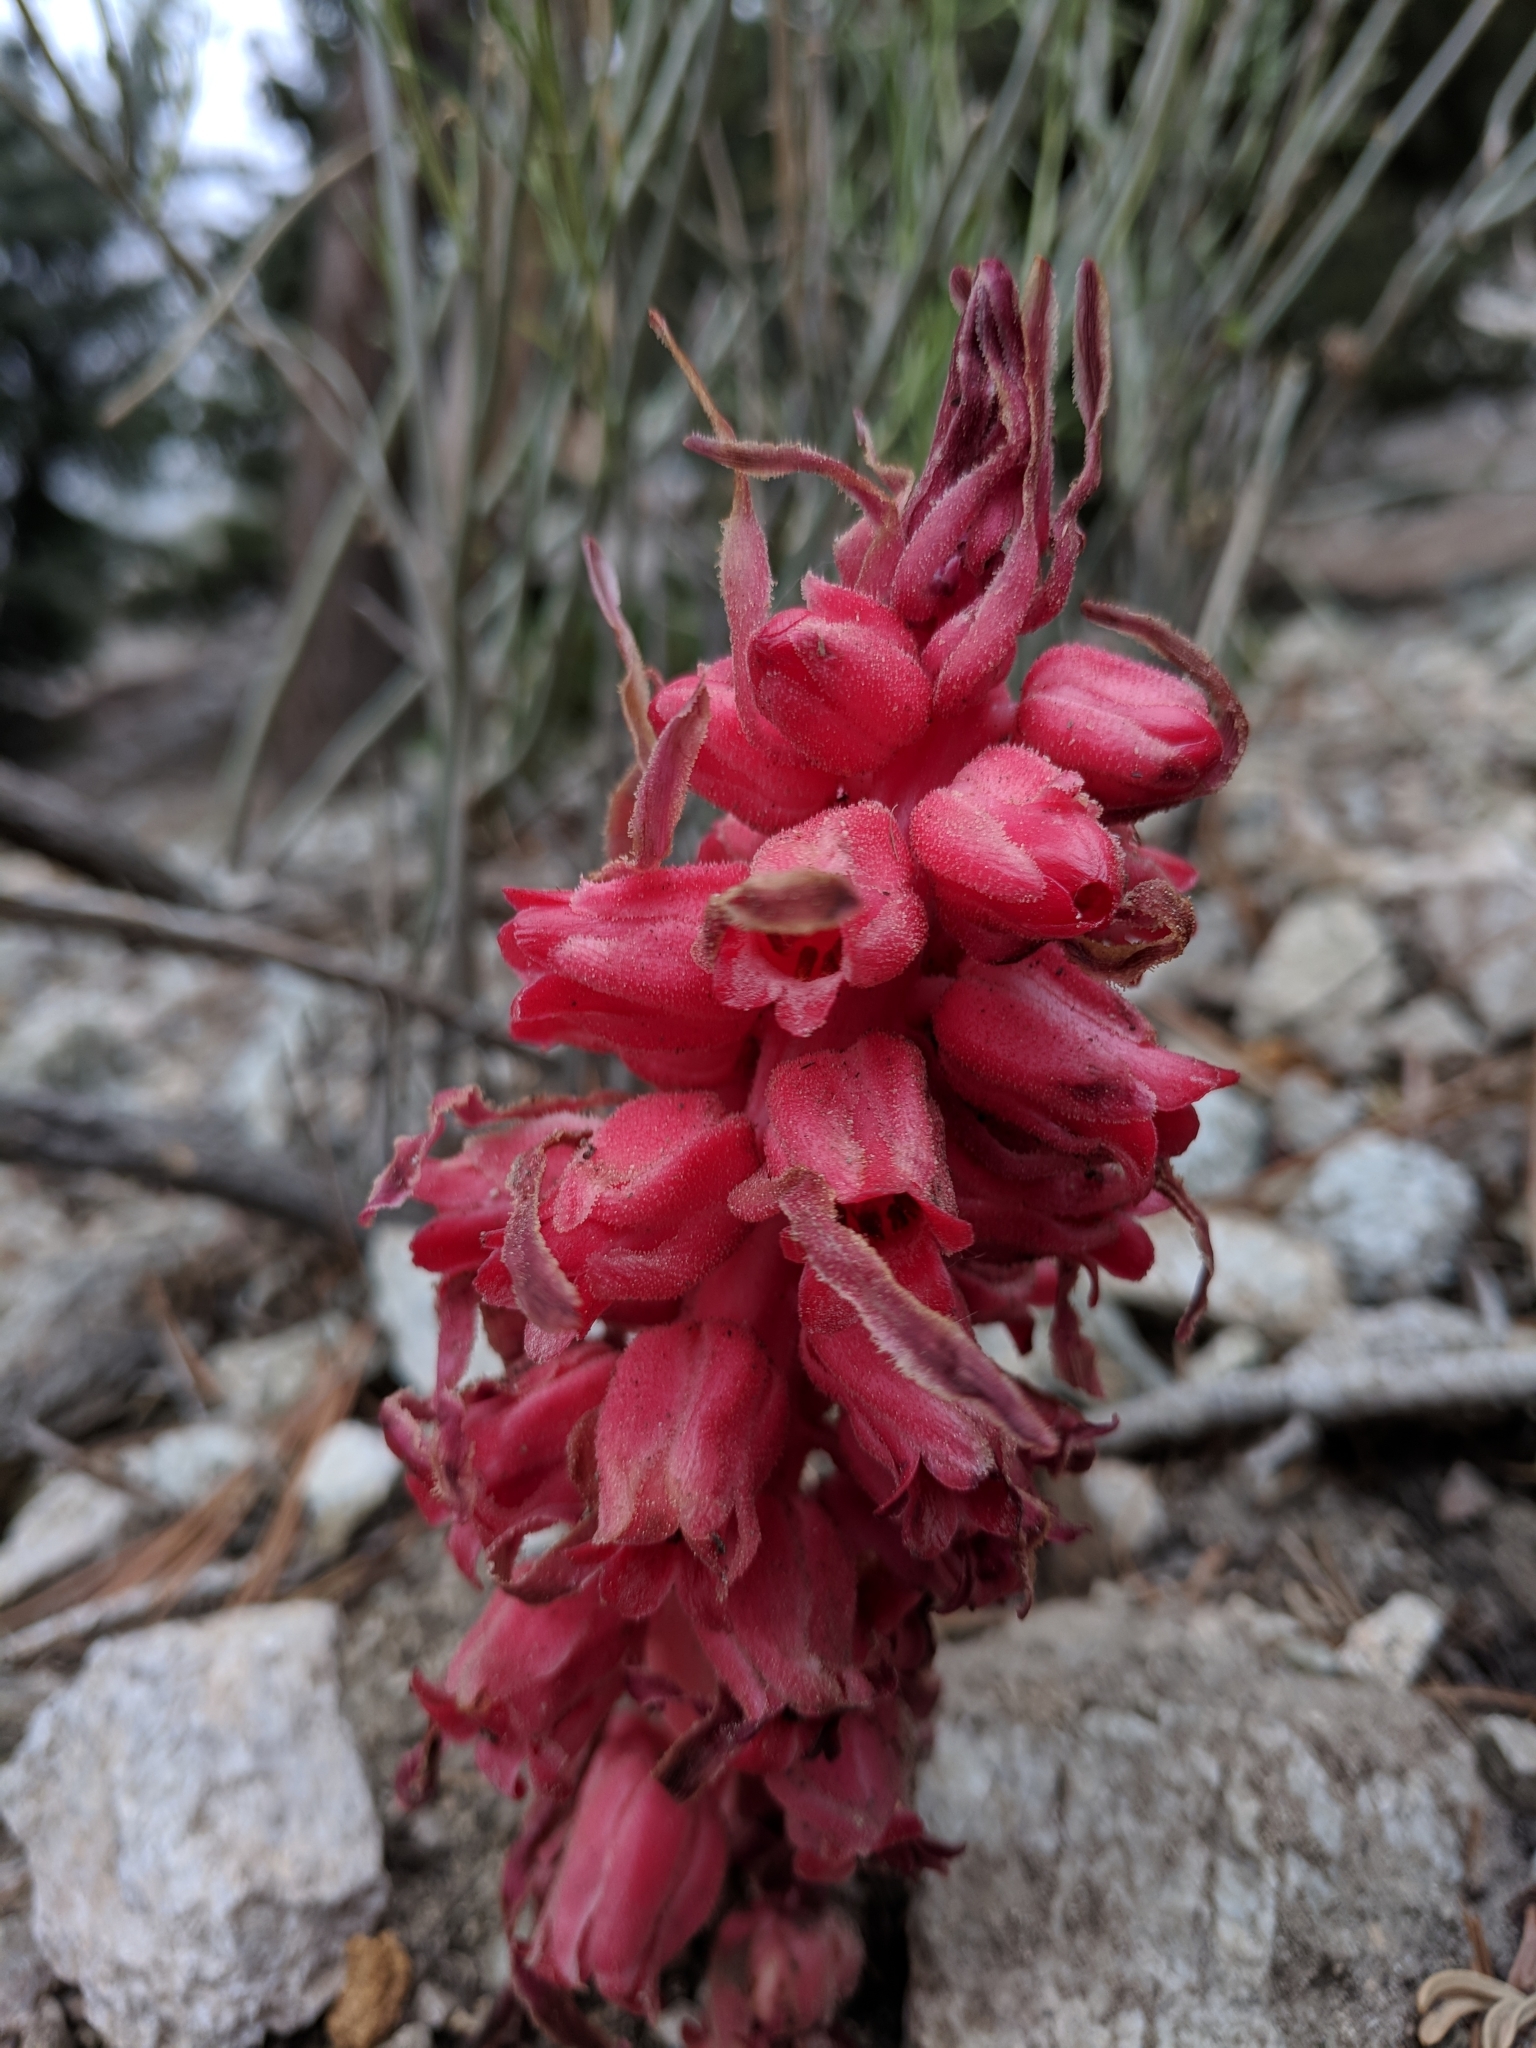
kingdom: Plantae
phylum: Tracheophyta
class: Magnoliopsida
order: Ericales
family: Ericaceae
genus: Sarcodes
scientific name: Sarcodes sanguinea
